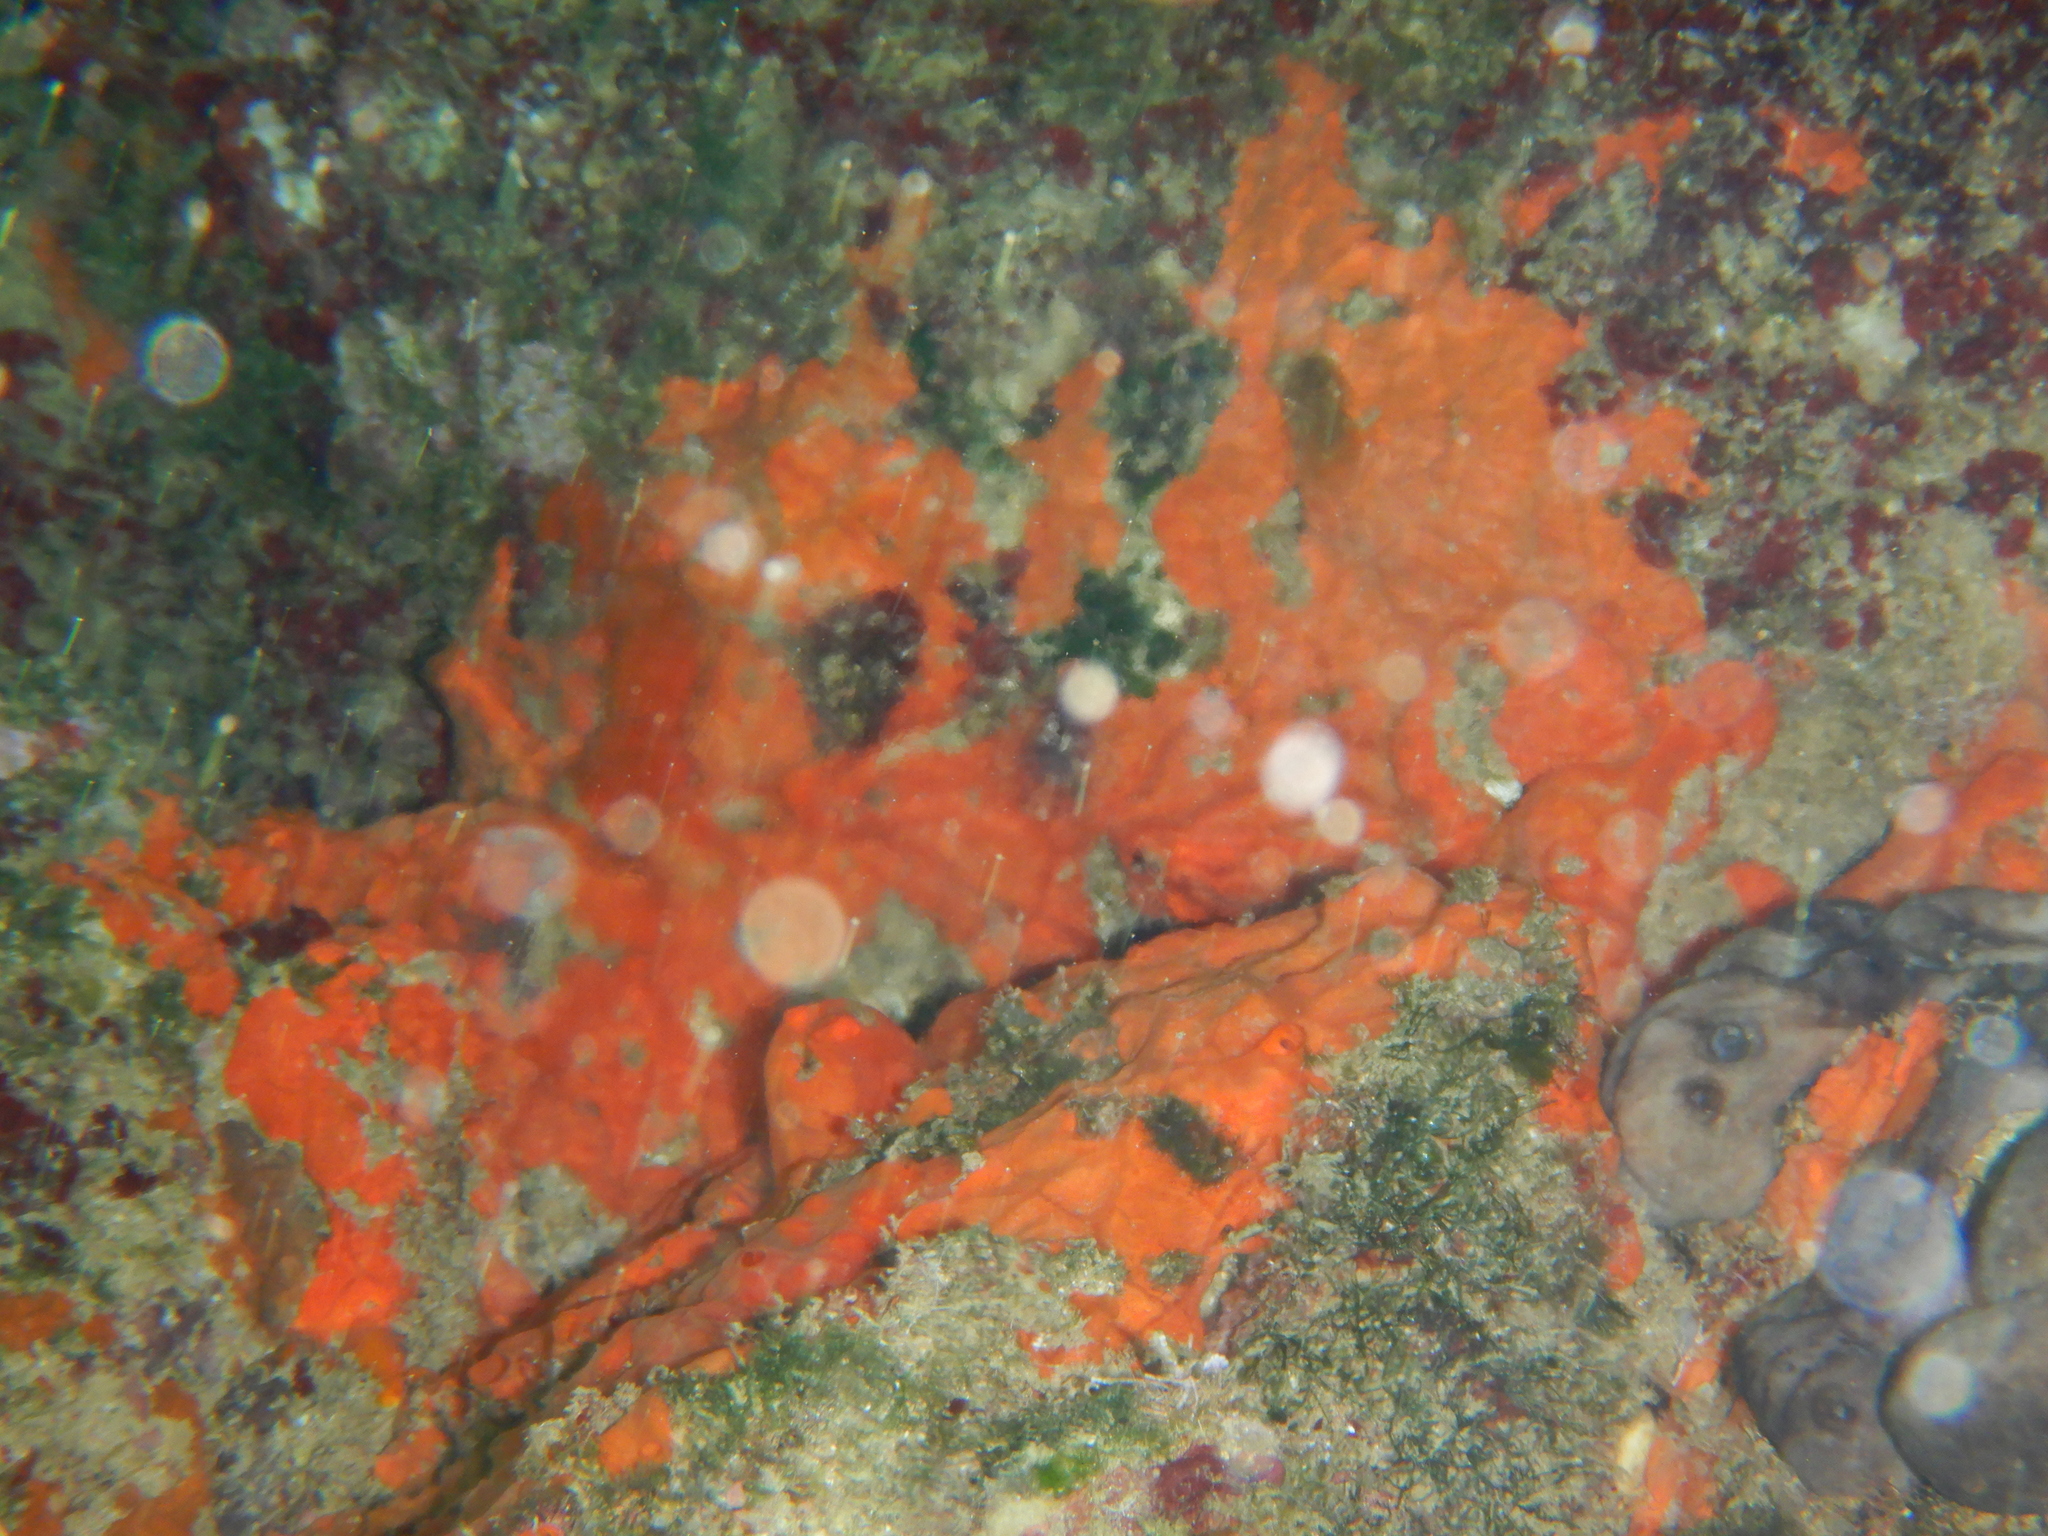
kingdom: Animalia
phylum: Porifera
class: Demospongiae
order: Clionaida
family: Spirastrellidae
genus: Spirastrella
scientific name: Spirastrella cunctatrix
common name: Encrusting orange sponge
